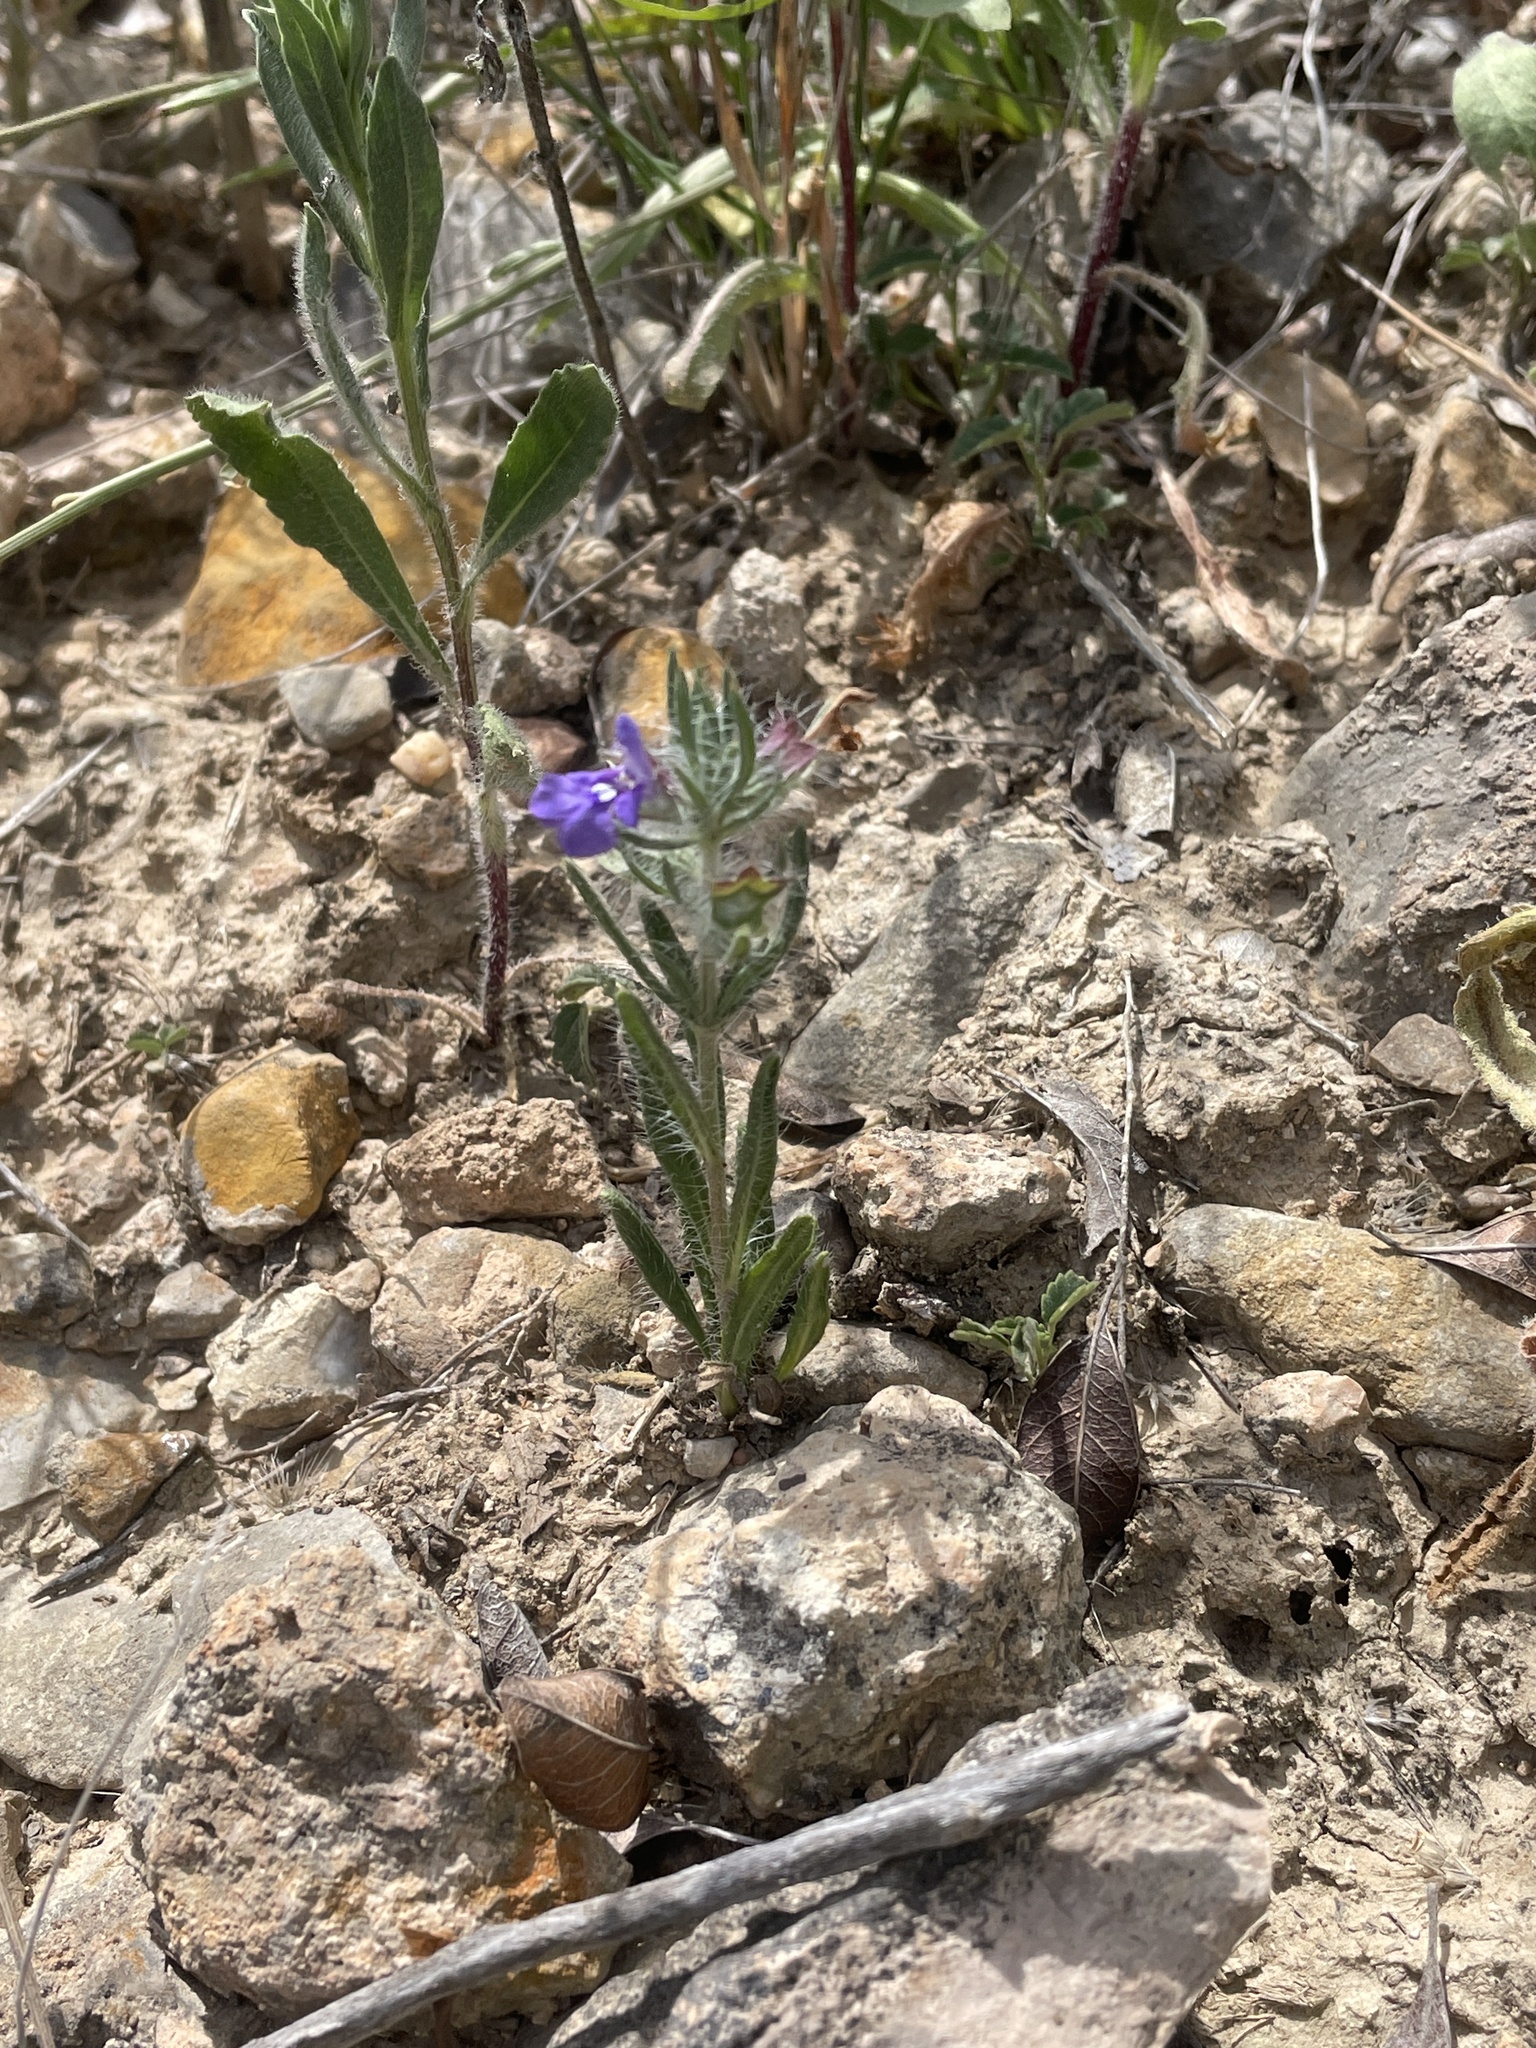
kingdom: Plantae
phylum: Tracheophyta
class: Magnoliopsida
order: Lamiales
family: Lamiaceae
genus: Salvia
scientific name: Salvia texana
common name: Texas sage
